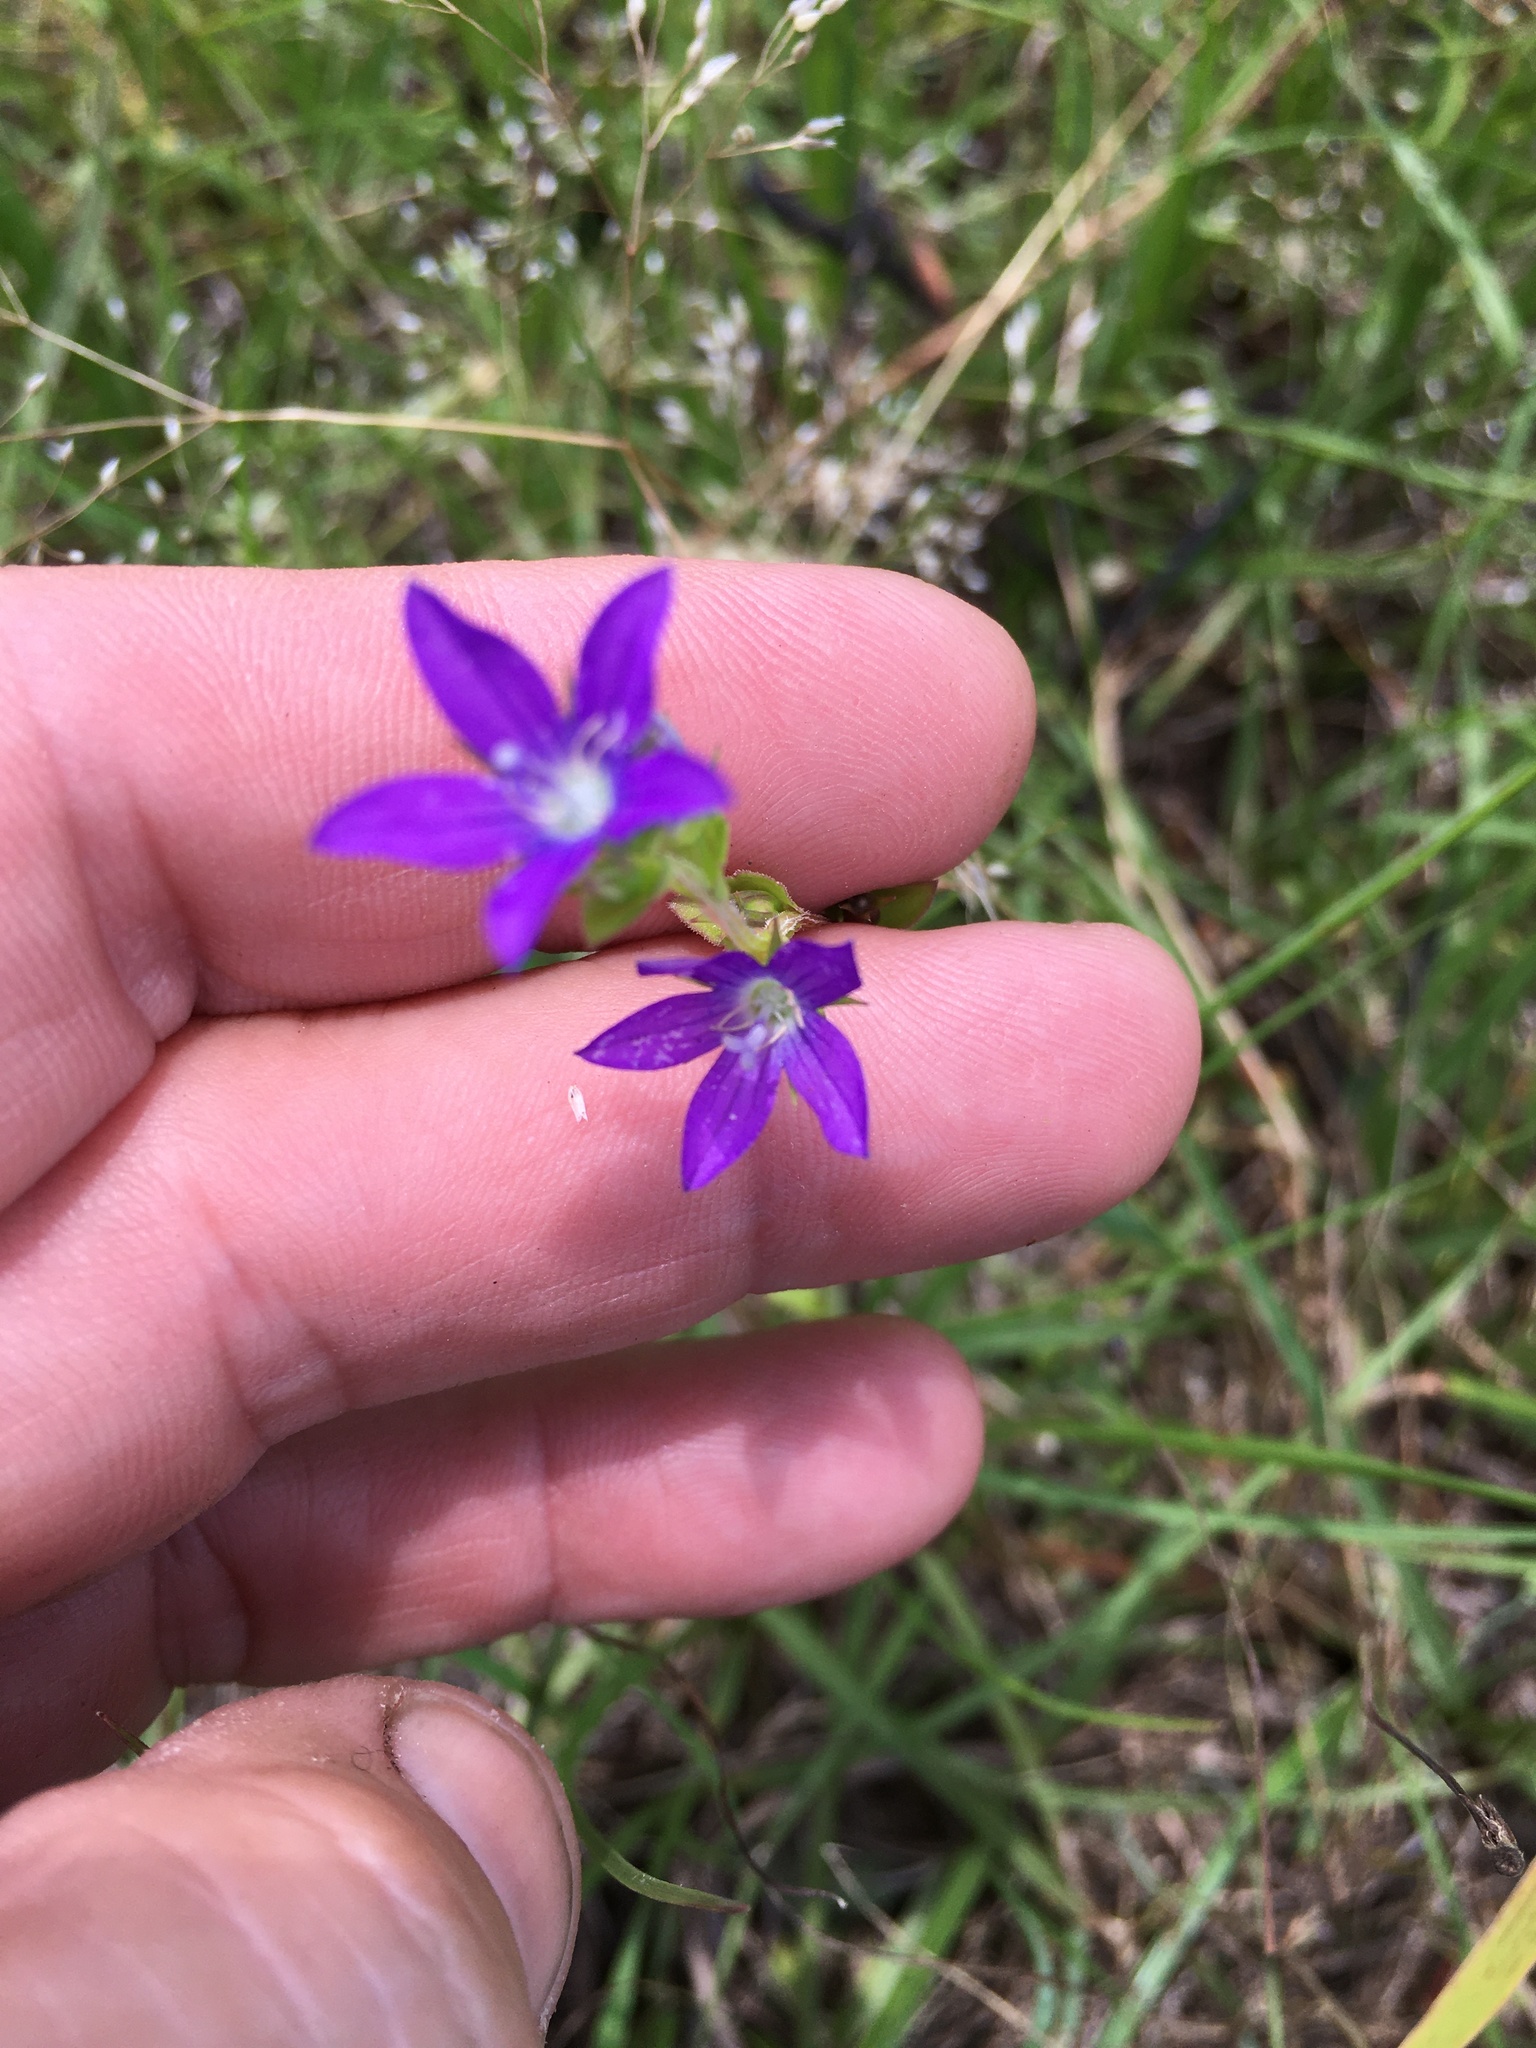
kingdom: Plantae
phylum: Tracheophyta
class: Magnoliopsida
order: Asterales
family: Campanulaceae
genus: Triodanis
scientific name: Triodanis perfoliata
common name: Clasping venus' looking-glass
